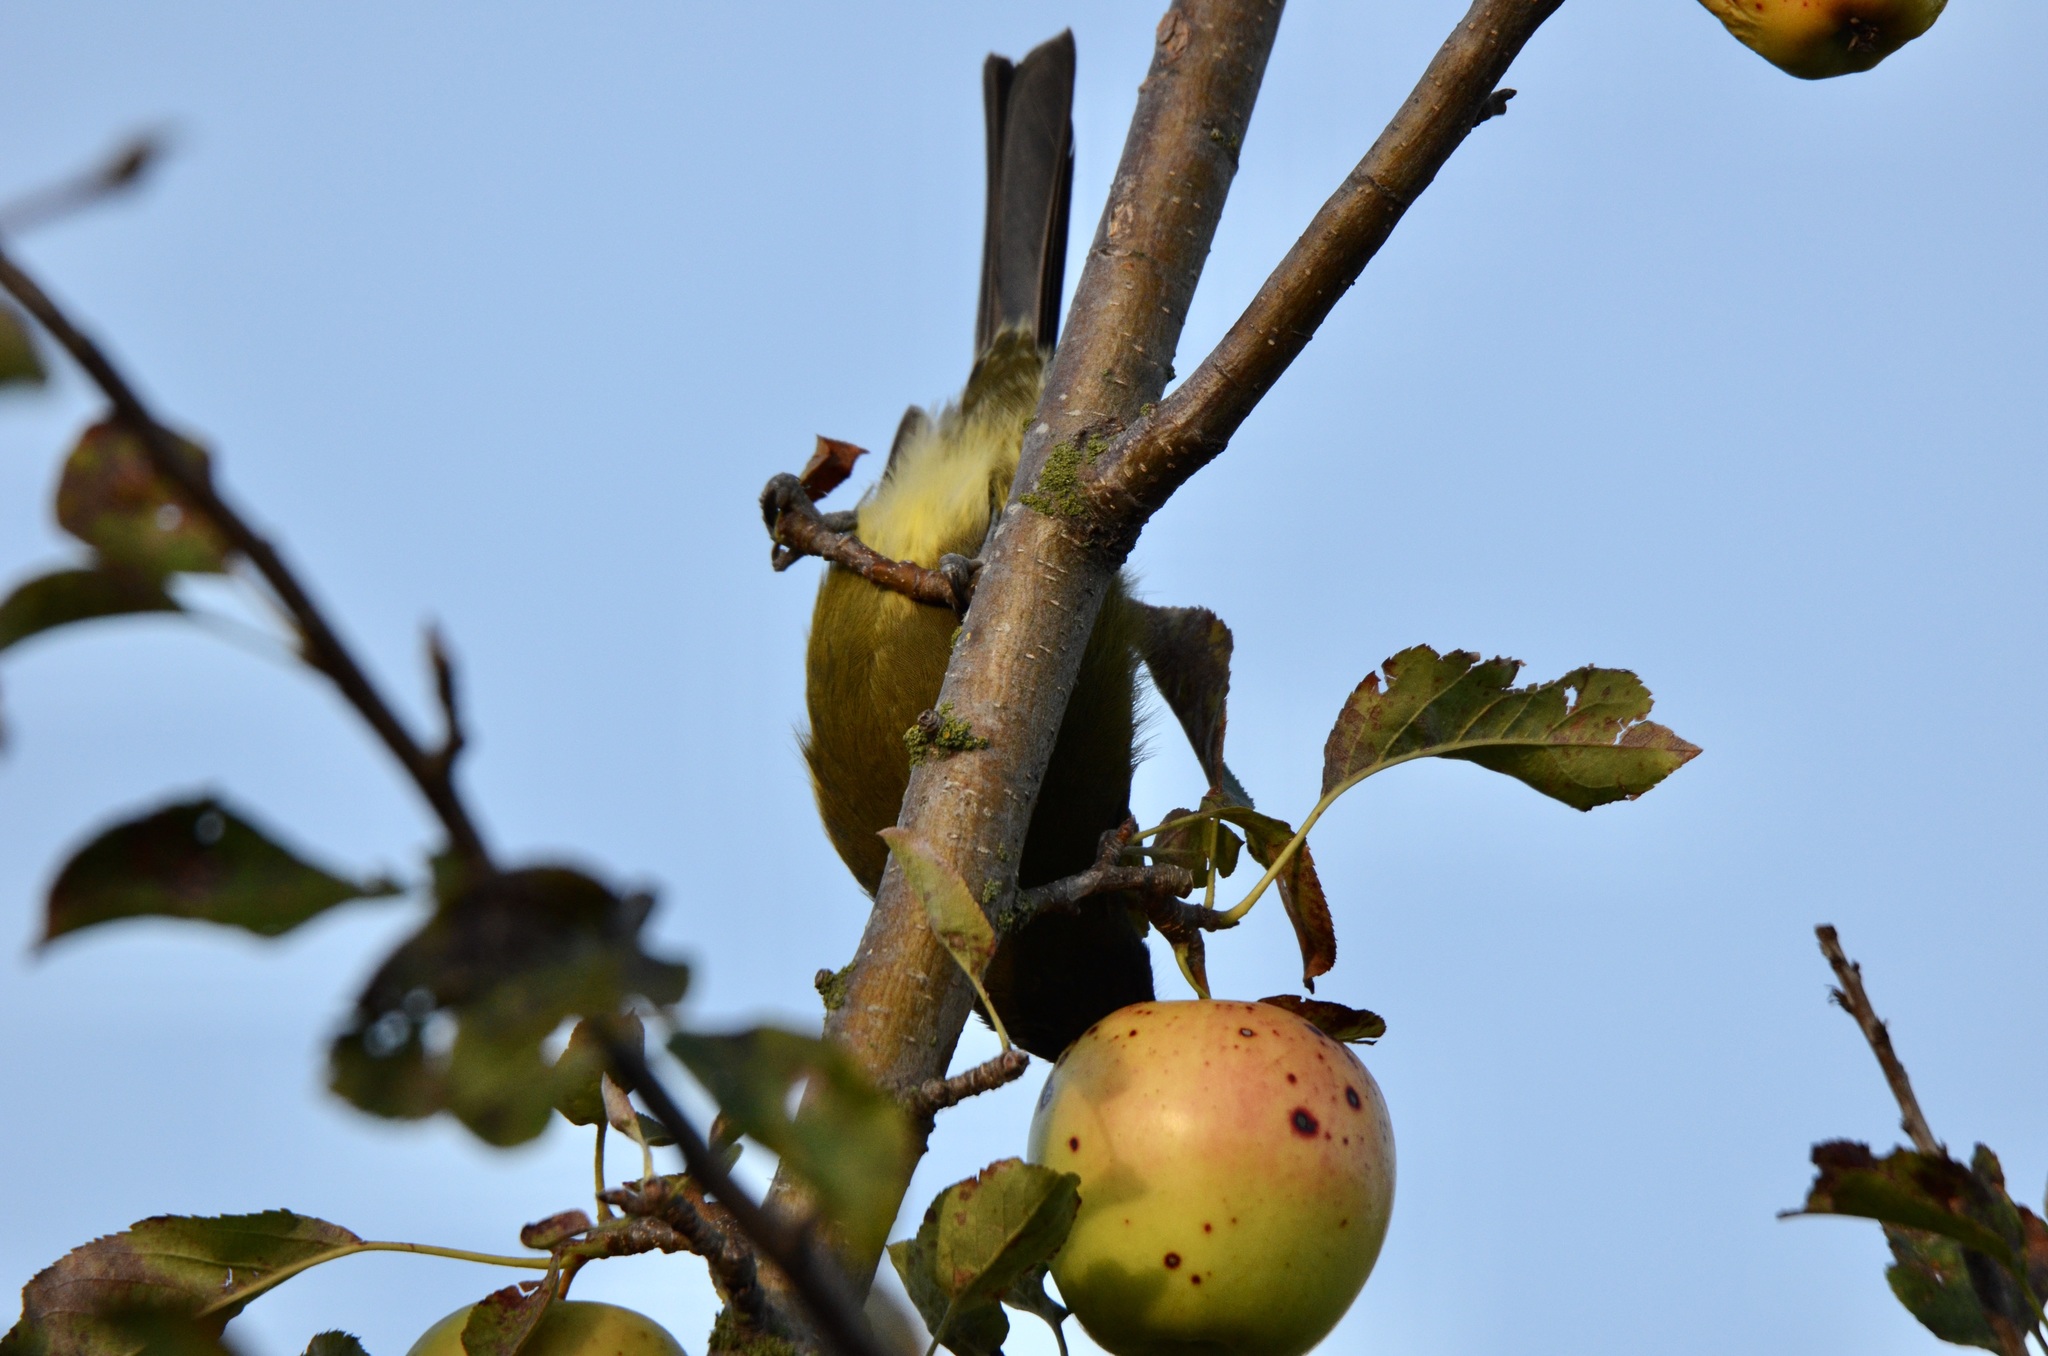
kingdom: Animalia
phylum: Chordata
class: Aves
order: Passeriformes
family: Meliphagidae
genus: Anthornis
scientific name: Anthornis melanura
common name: New zealand bellbird
